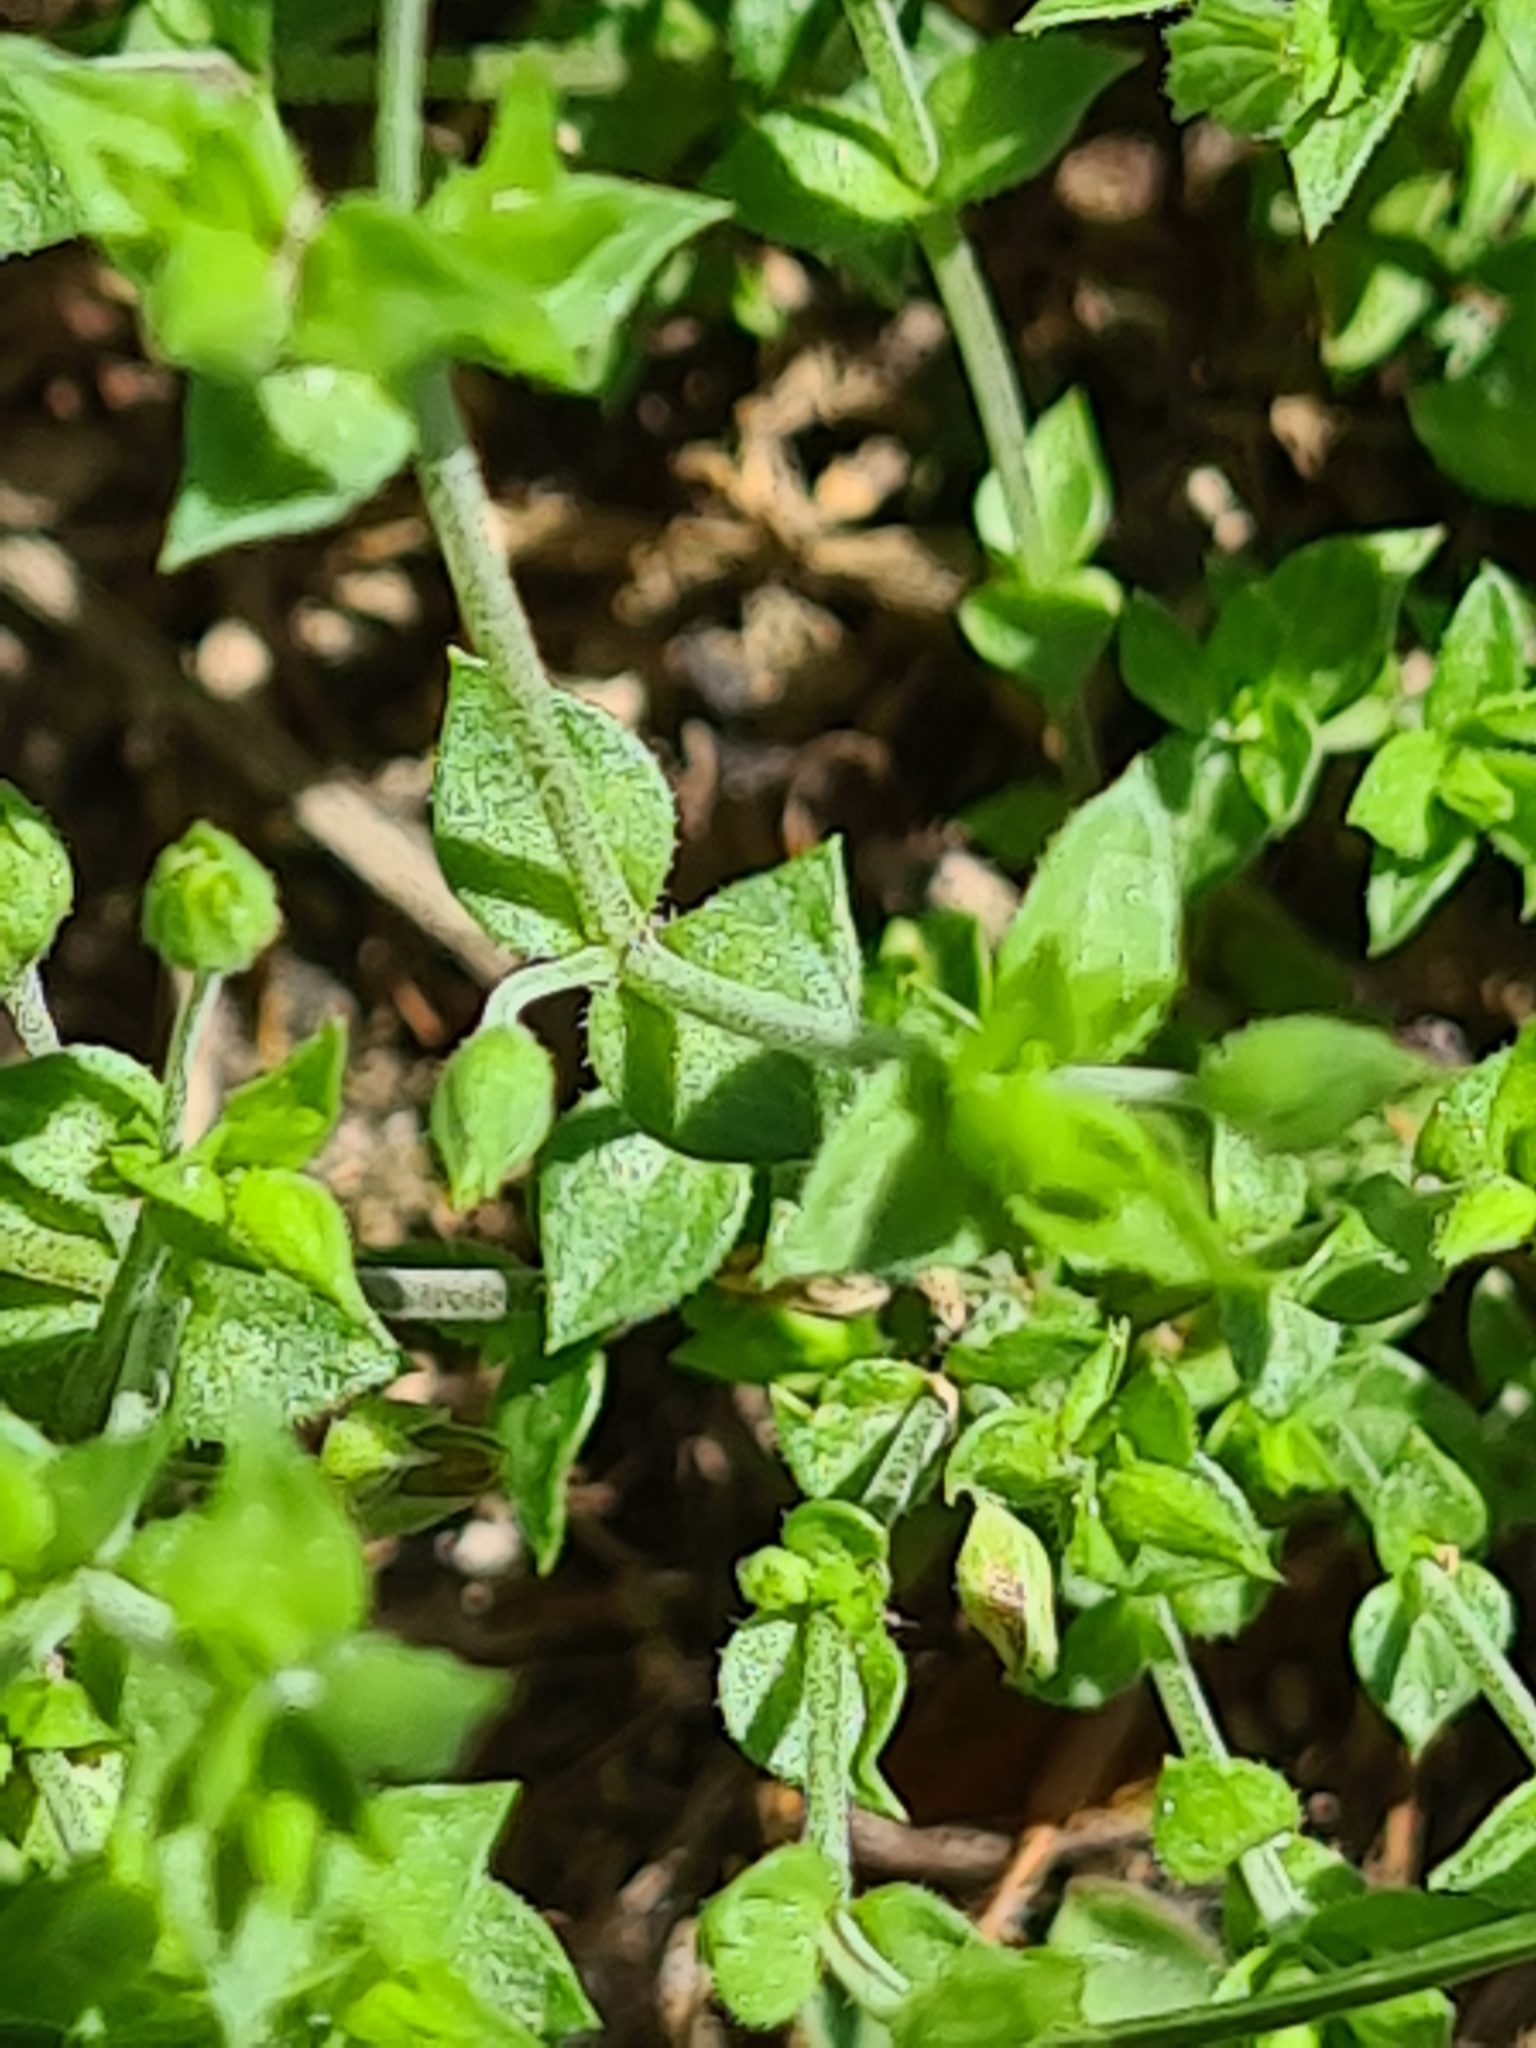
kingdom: Plantae
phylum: Tracheophyta
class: Magnoliopsida
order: Caryophyllales
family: Caryophyllaceae
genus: Arenaria
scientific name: Arenaria serpyllifolia
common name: Thyme-leaved sandwort
